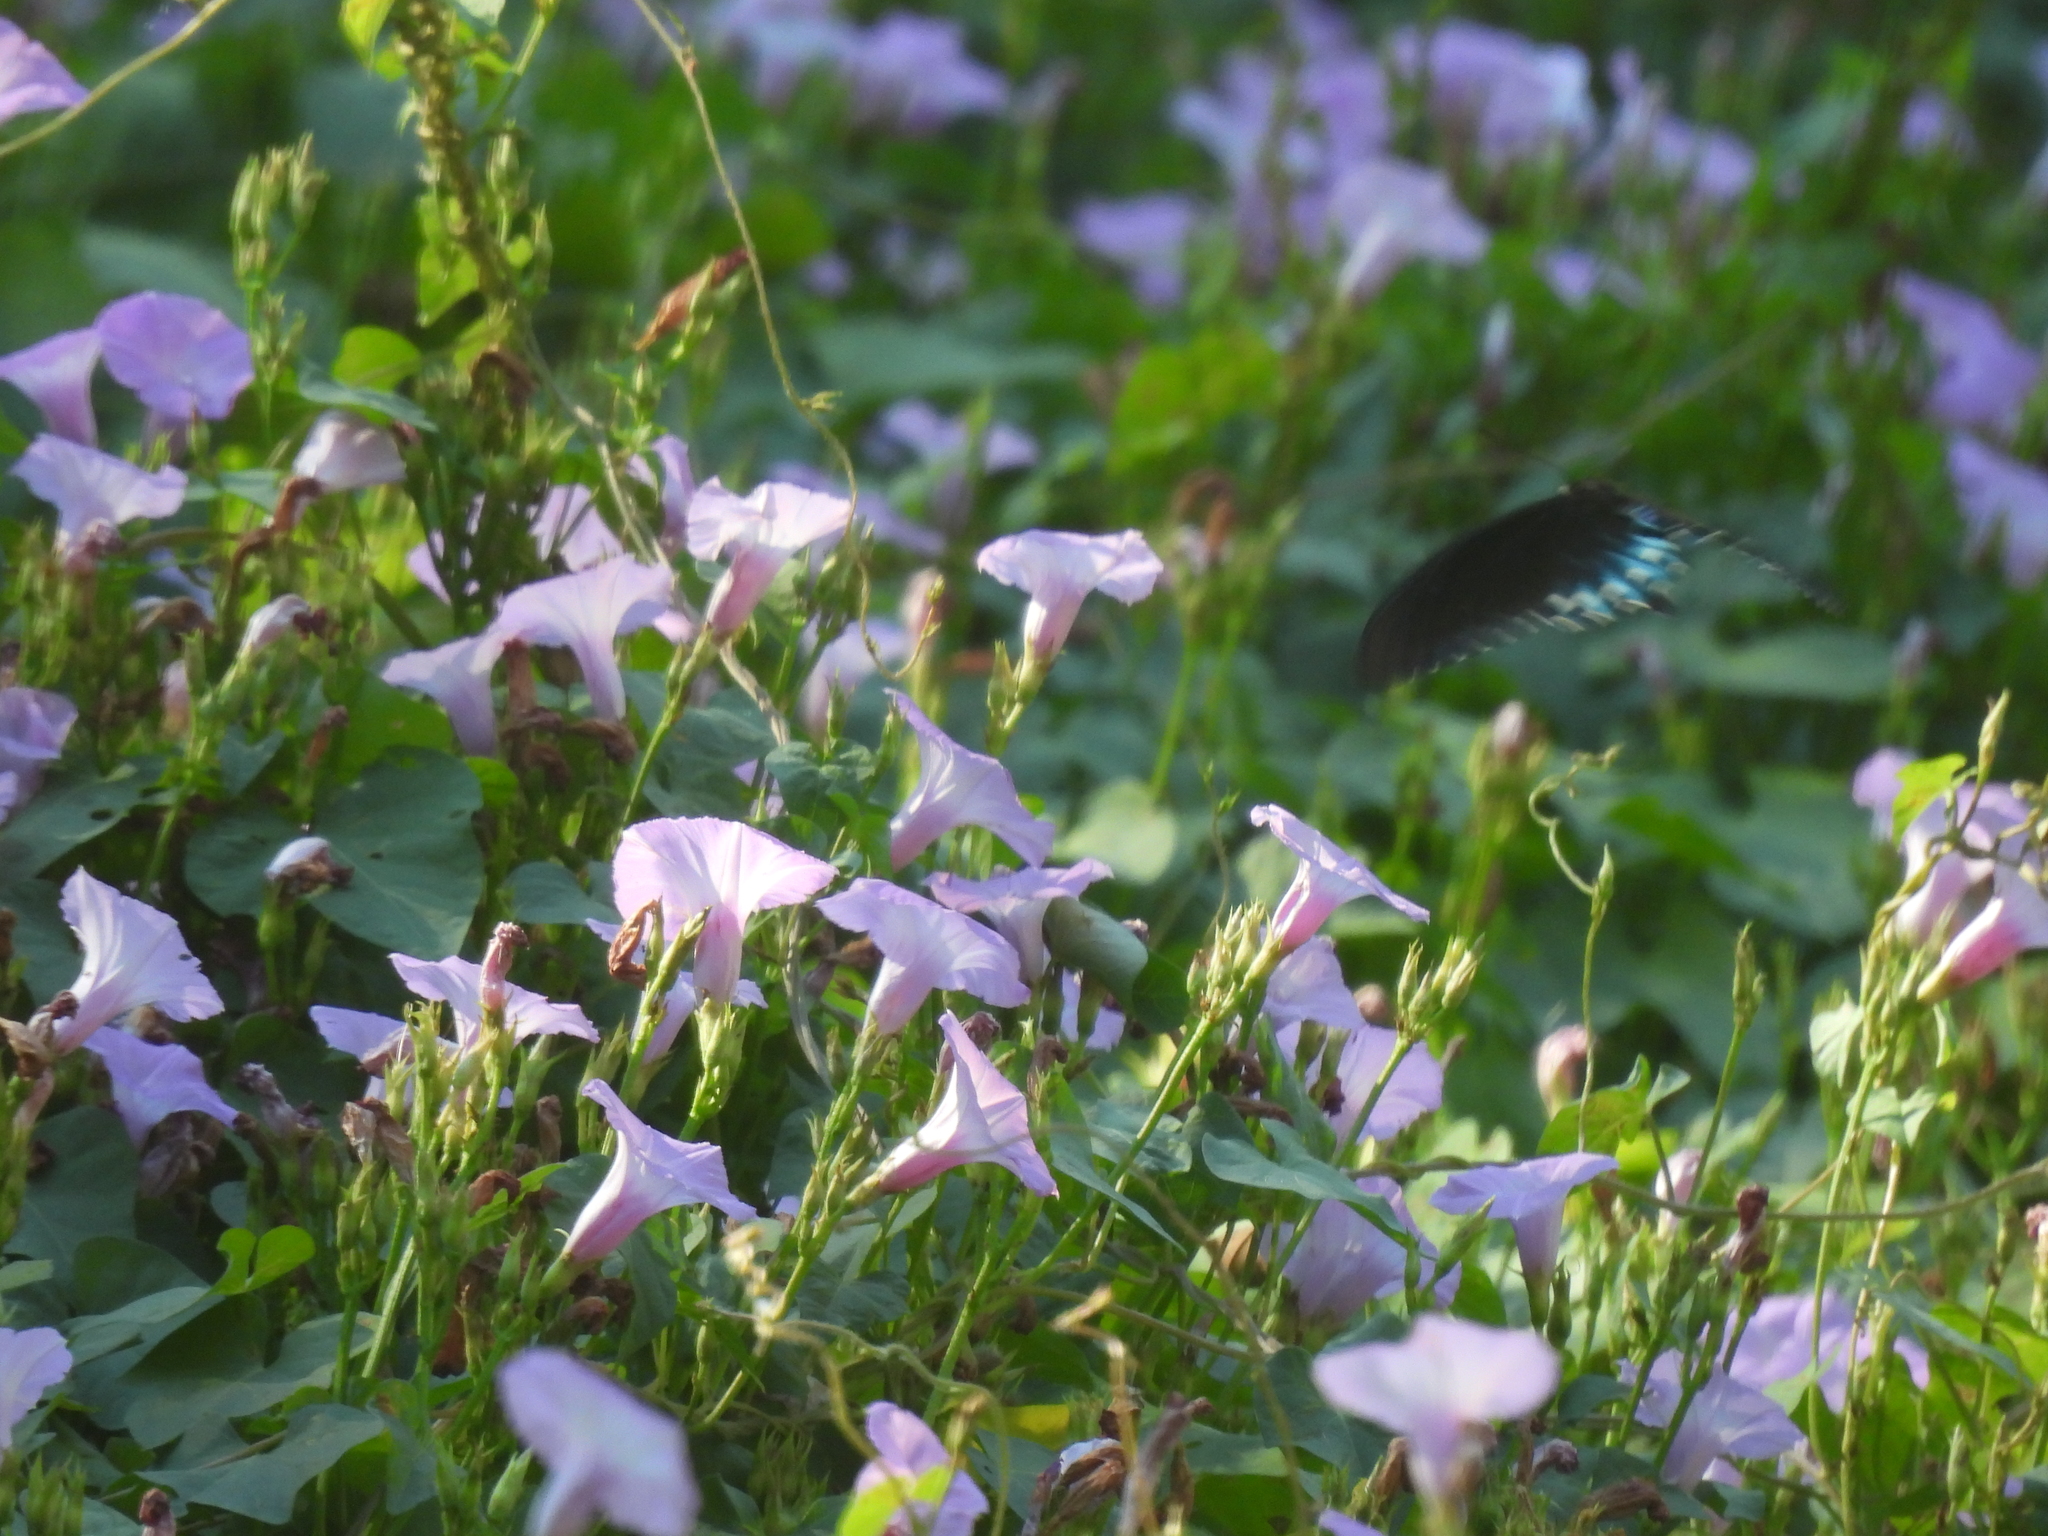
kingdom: Animalia
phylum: Arthropoda
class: Insecta
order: Lepidoptera
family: Papilionidae
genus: Battus
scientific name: Battus philenor
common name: Pipevine swallowtail
